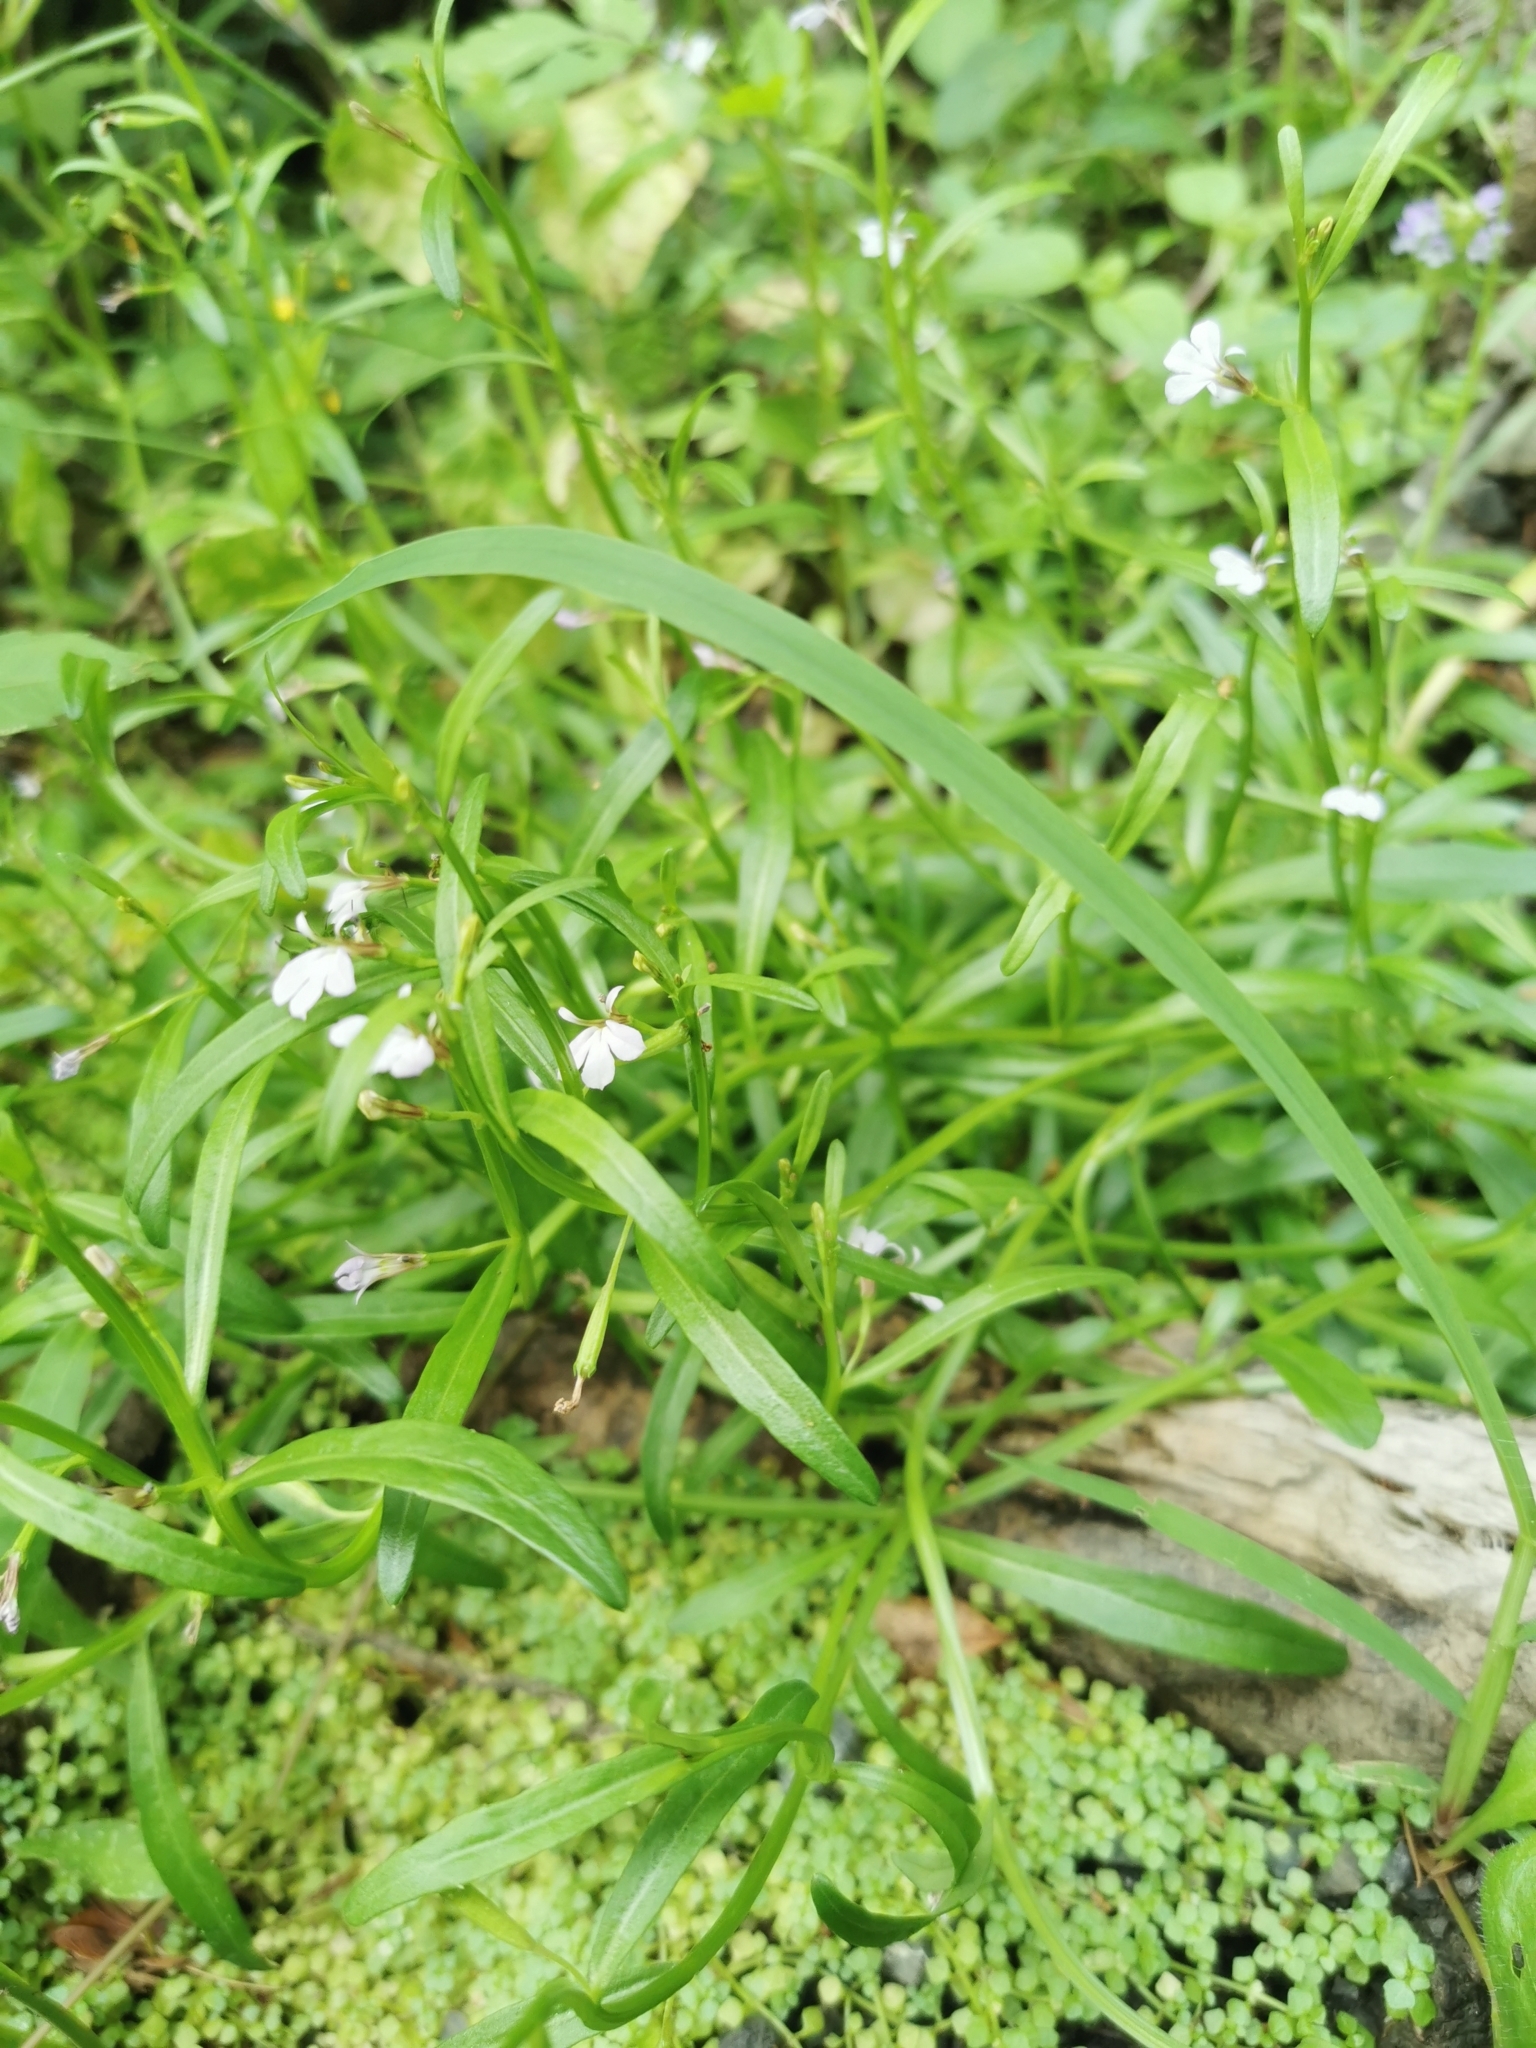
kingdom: Plantae
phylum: Tracheophyta
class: Magnoliopsida
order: Asterales
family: Campanulaceae
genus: Lobelia
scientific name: Lobelia anceps
